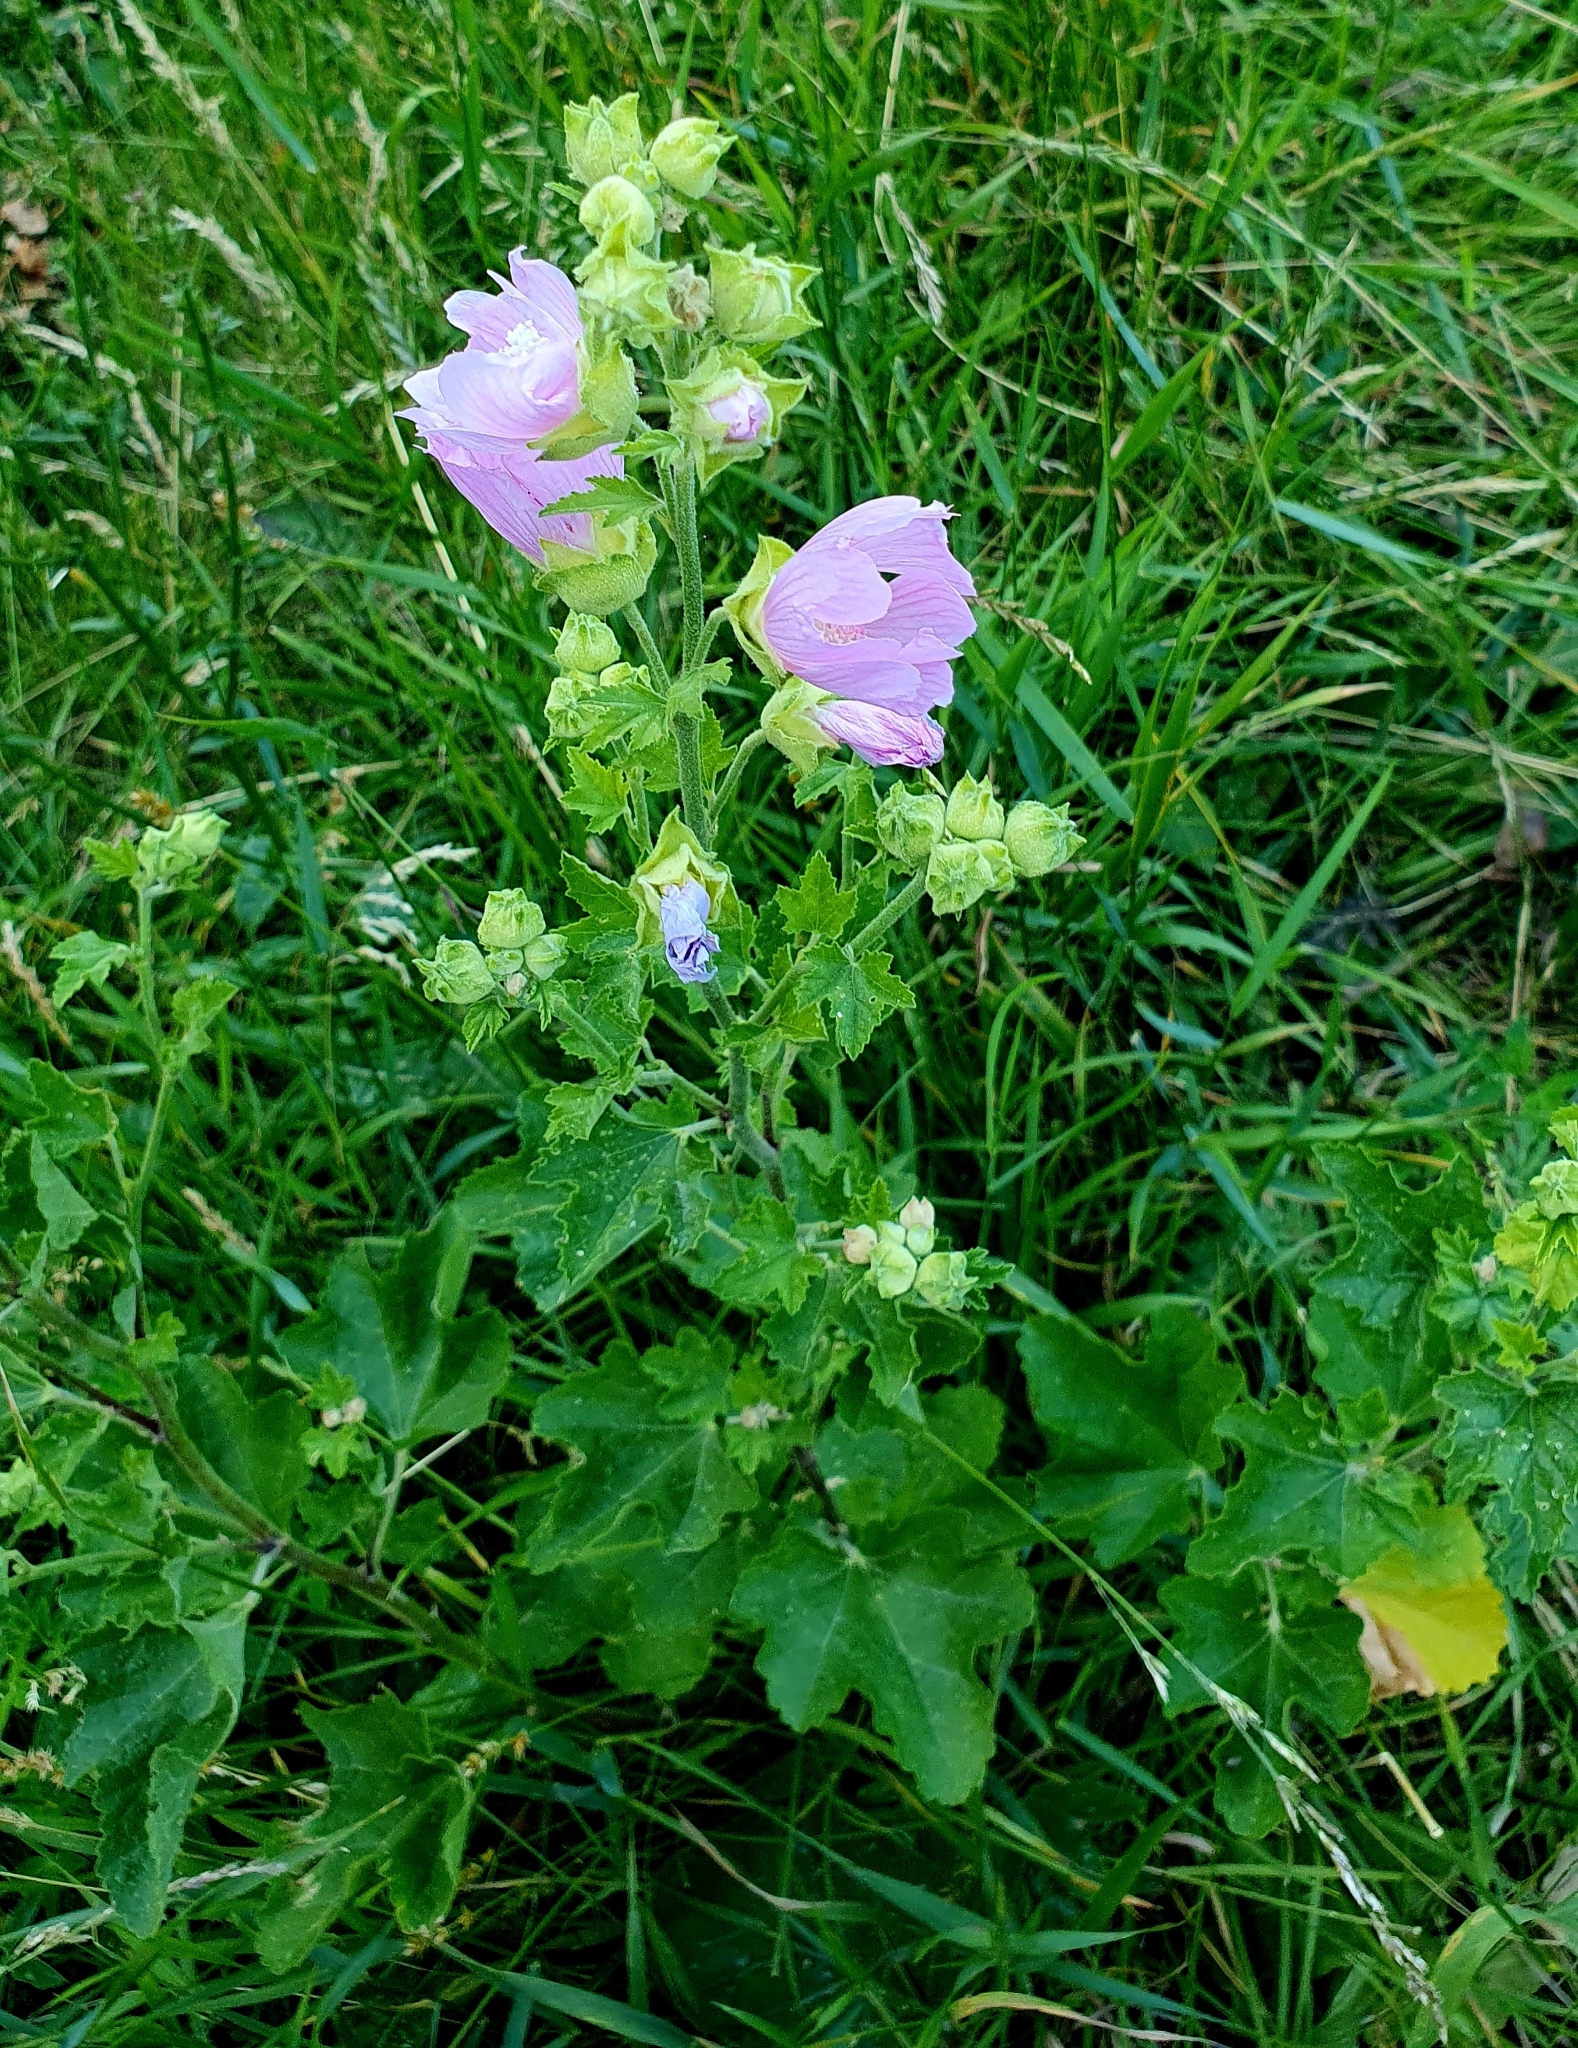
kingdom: Plantae
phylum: Tracheophyta
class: Magnoliopsida
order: Malvales
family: Malvaceae
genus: Malva
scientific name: Malva thuringiaca
